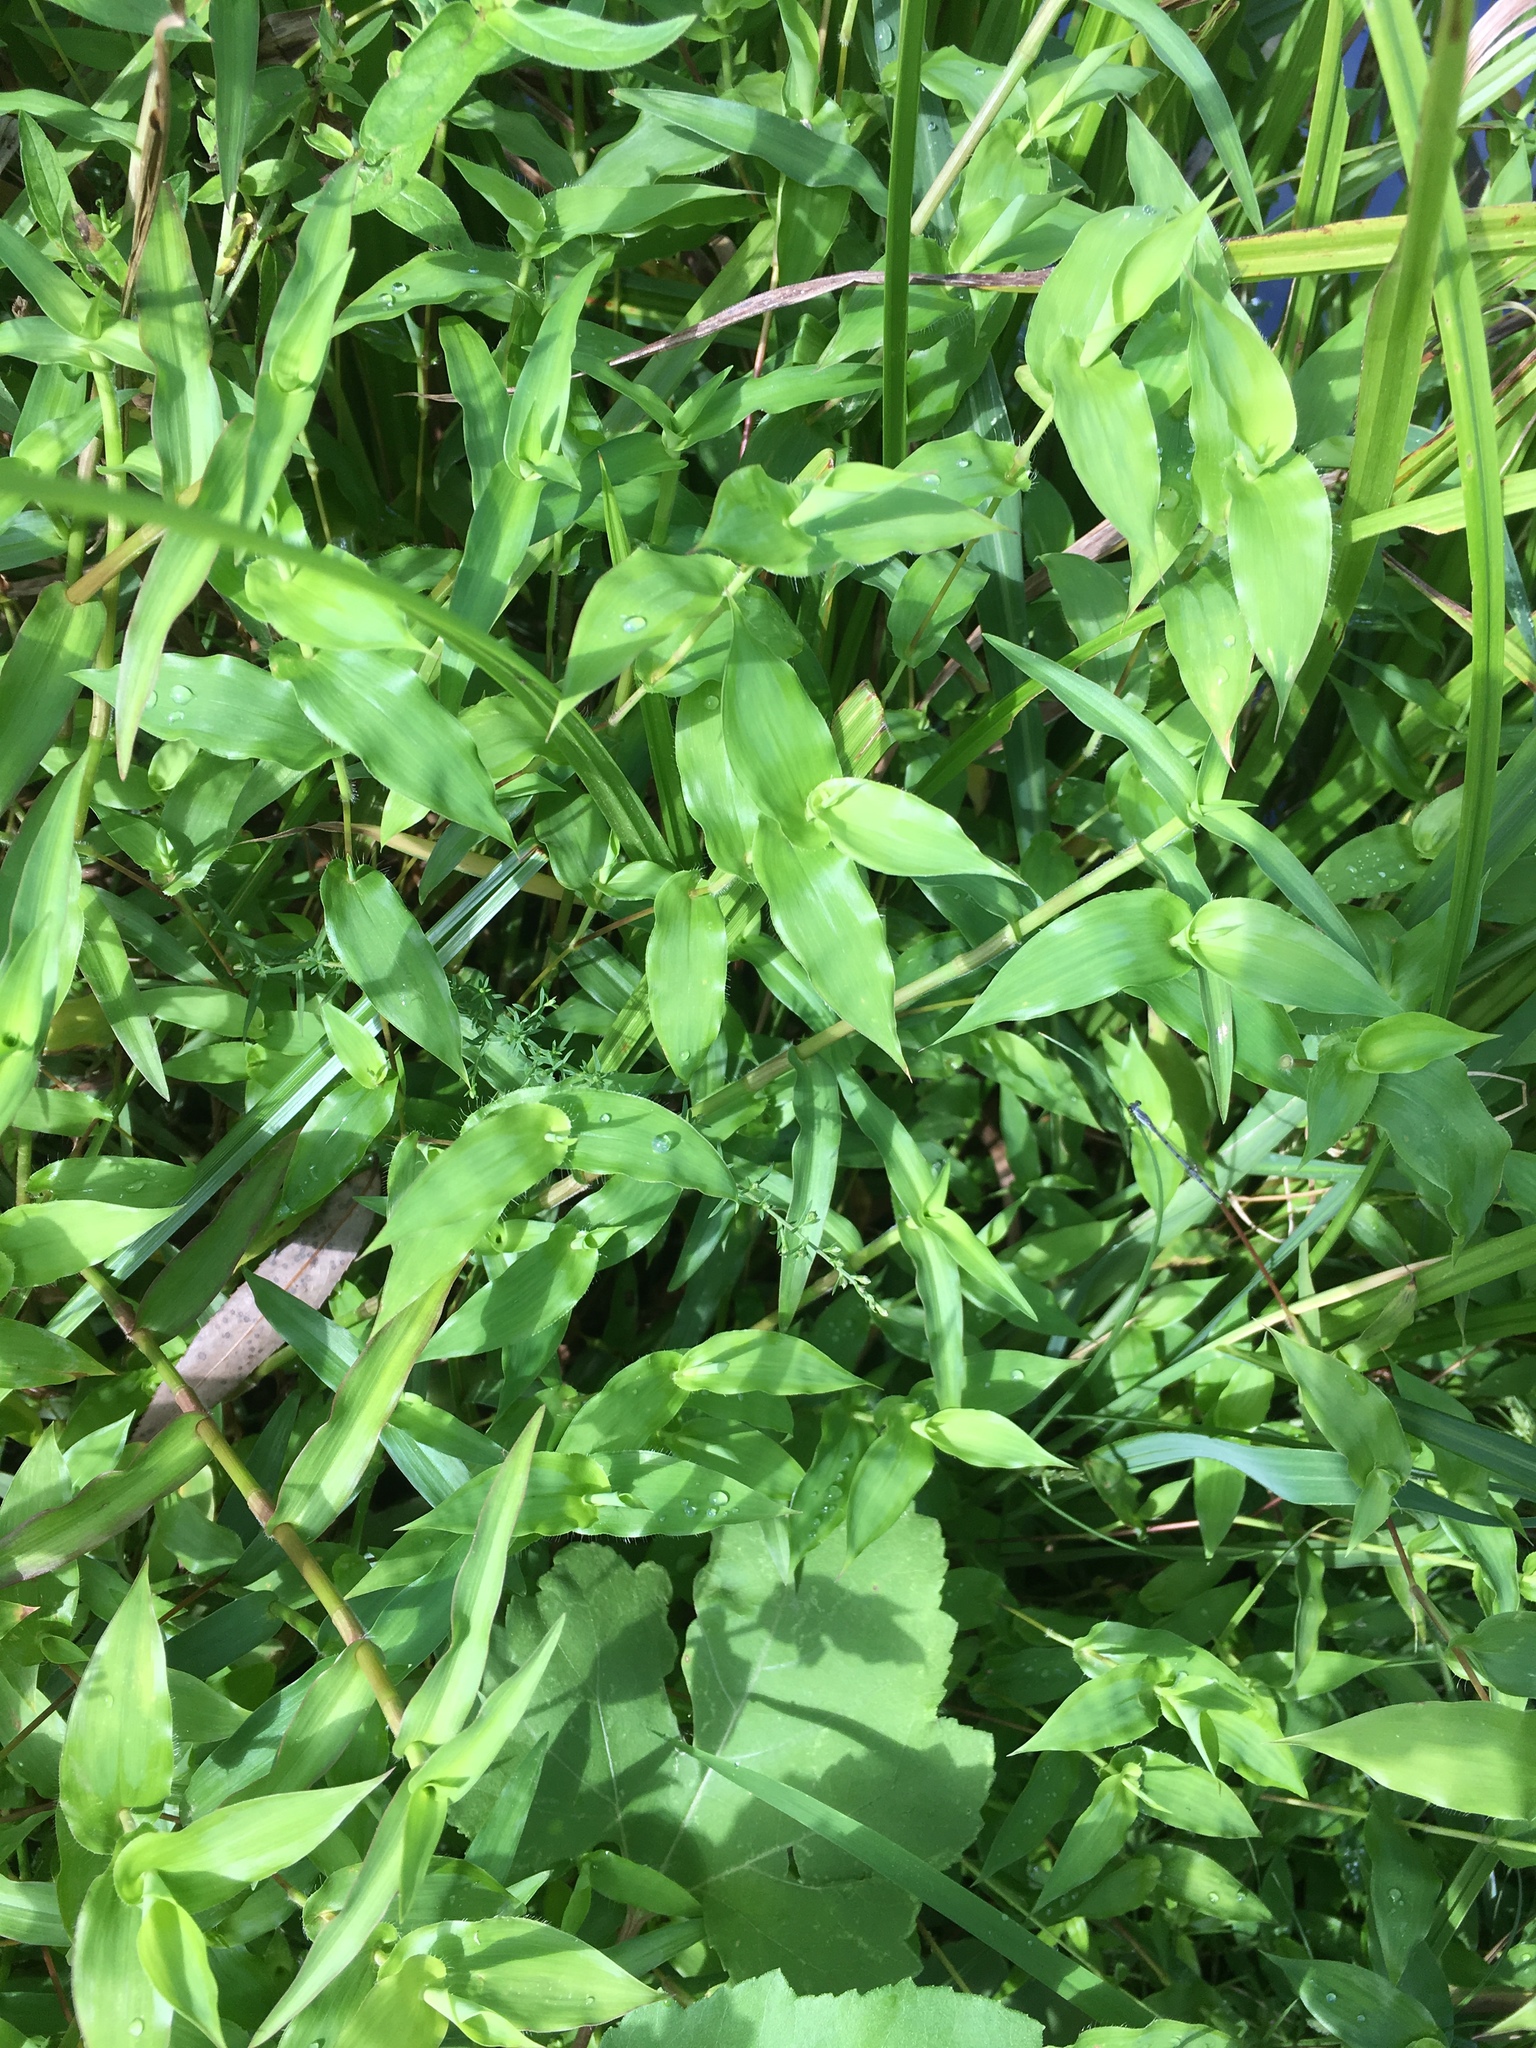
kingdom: Plantae
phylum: Tracheophyta
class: Liliopsida
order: Poales
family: Poaceae
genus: Arthraxon
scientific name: Arthraxon hispidus
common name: Small carpgrass
